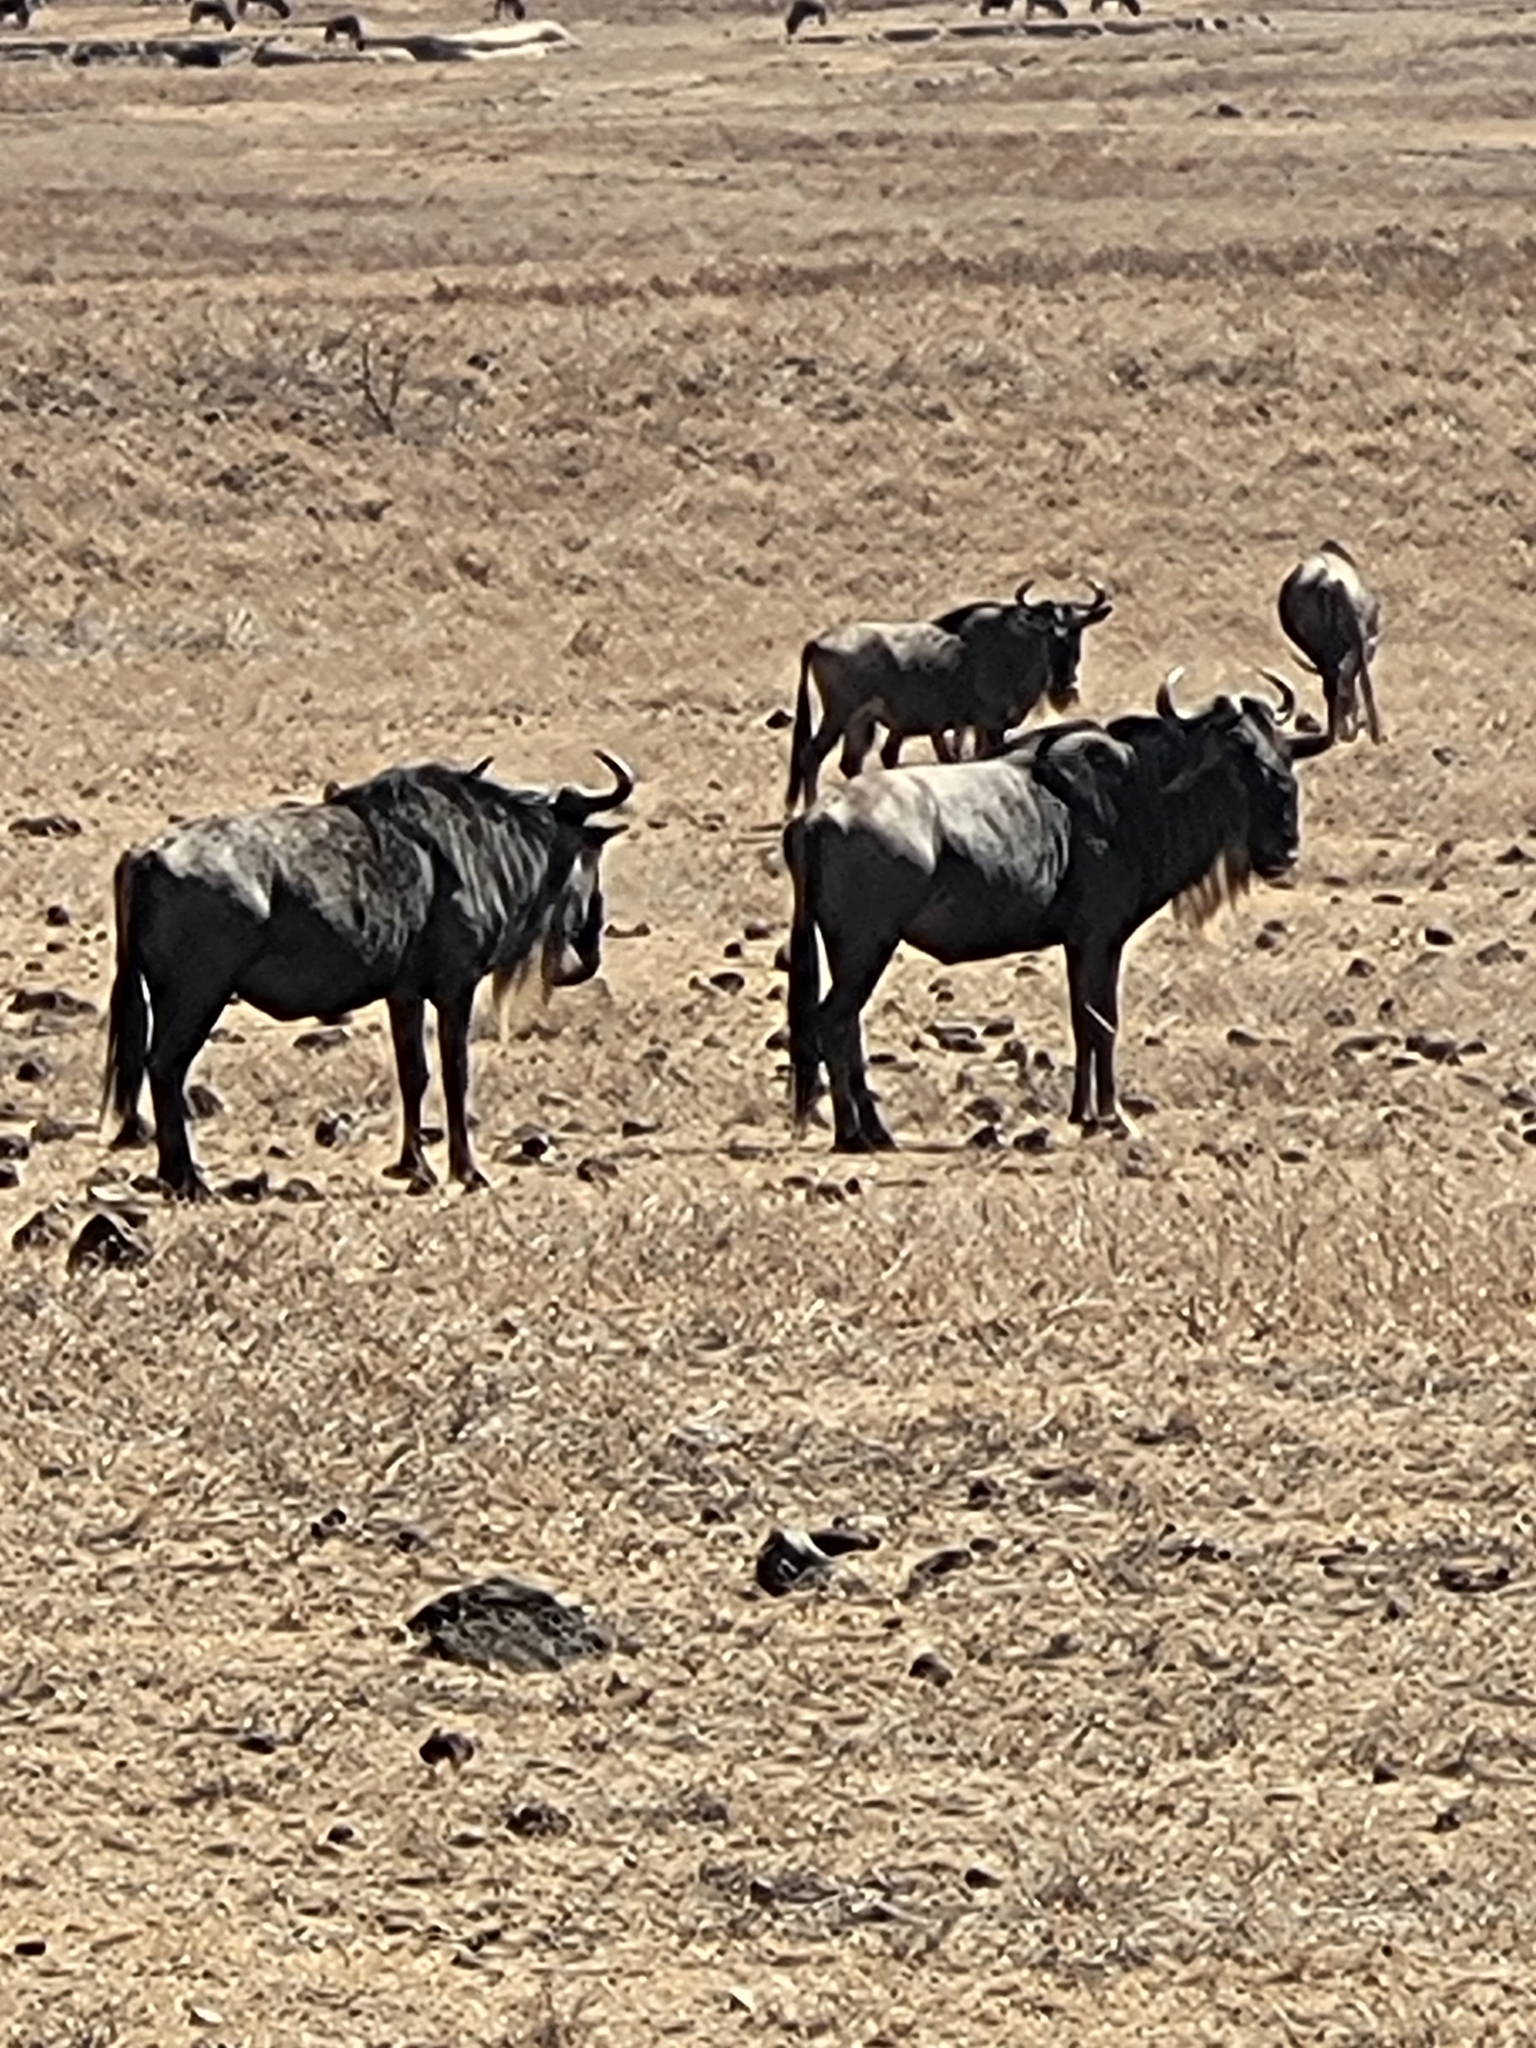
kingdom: Animalia
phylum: Chordata
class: Mammalia
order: Artiodactyla
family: Bovidae
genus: Connochaetes
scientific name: Connochaetes taurinus
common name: Blue wildebeest
